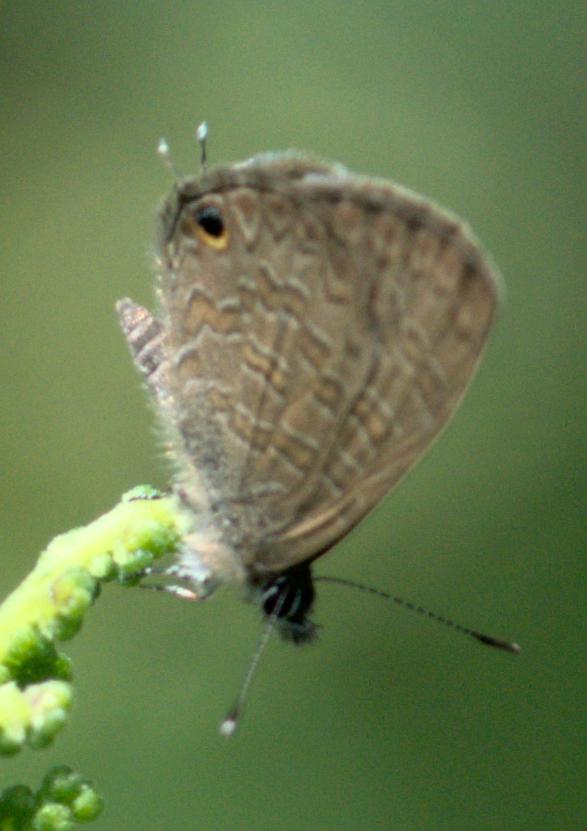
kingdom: Animalia
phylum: Arthropoda
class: Insecta
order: Lepidoptera
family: Lycaenidae
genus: Prosotas
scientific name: Prosotas nora
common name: Common line blue
